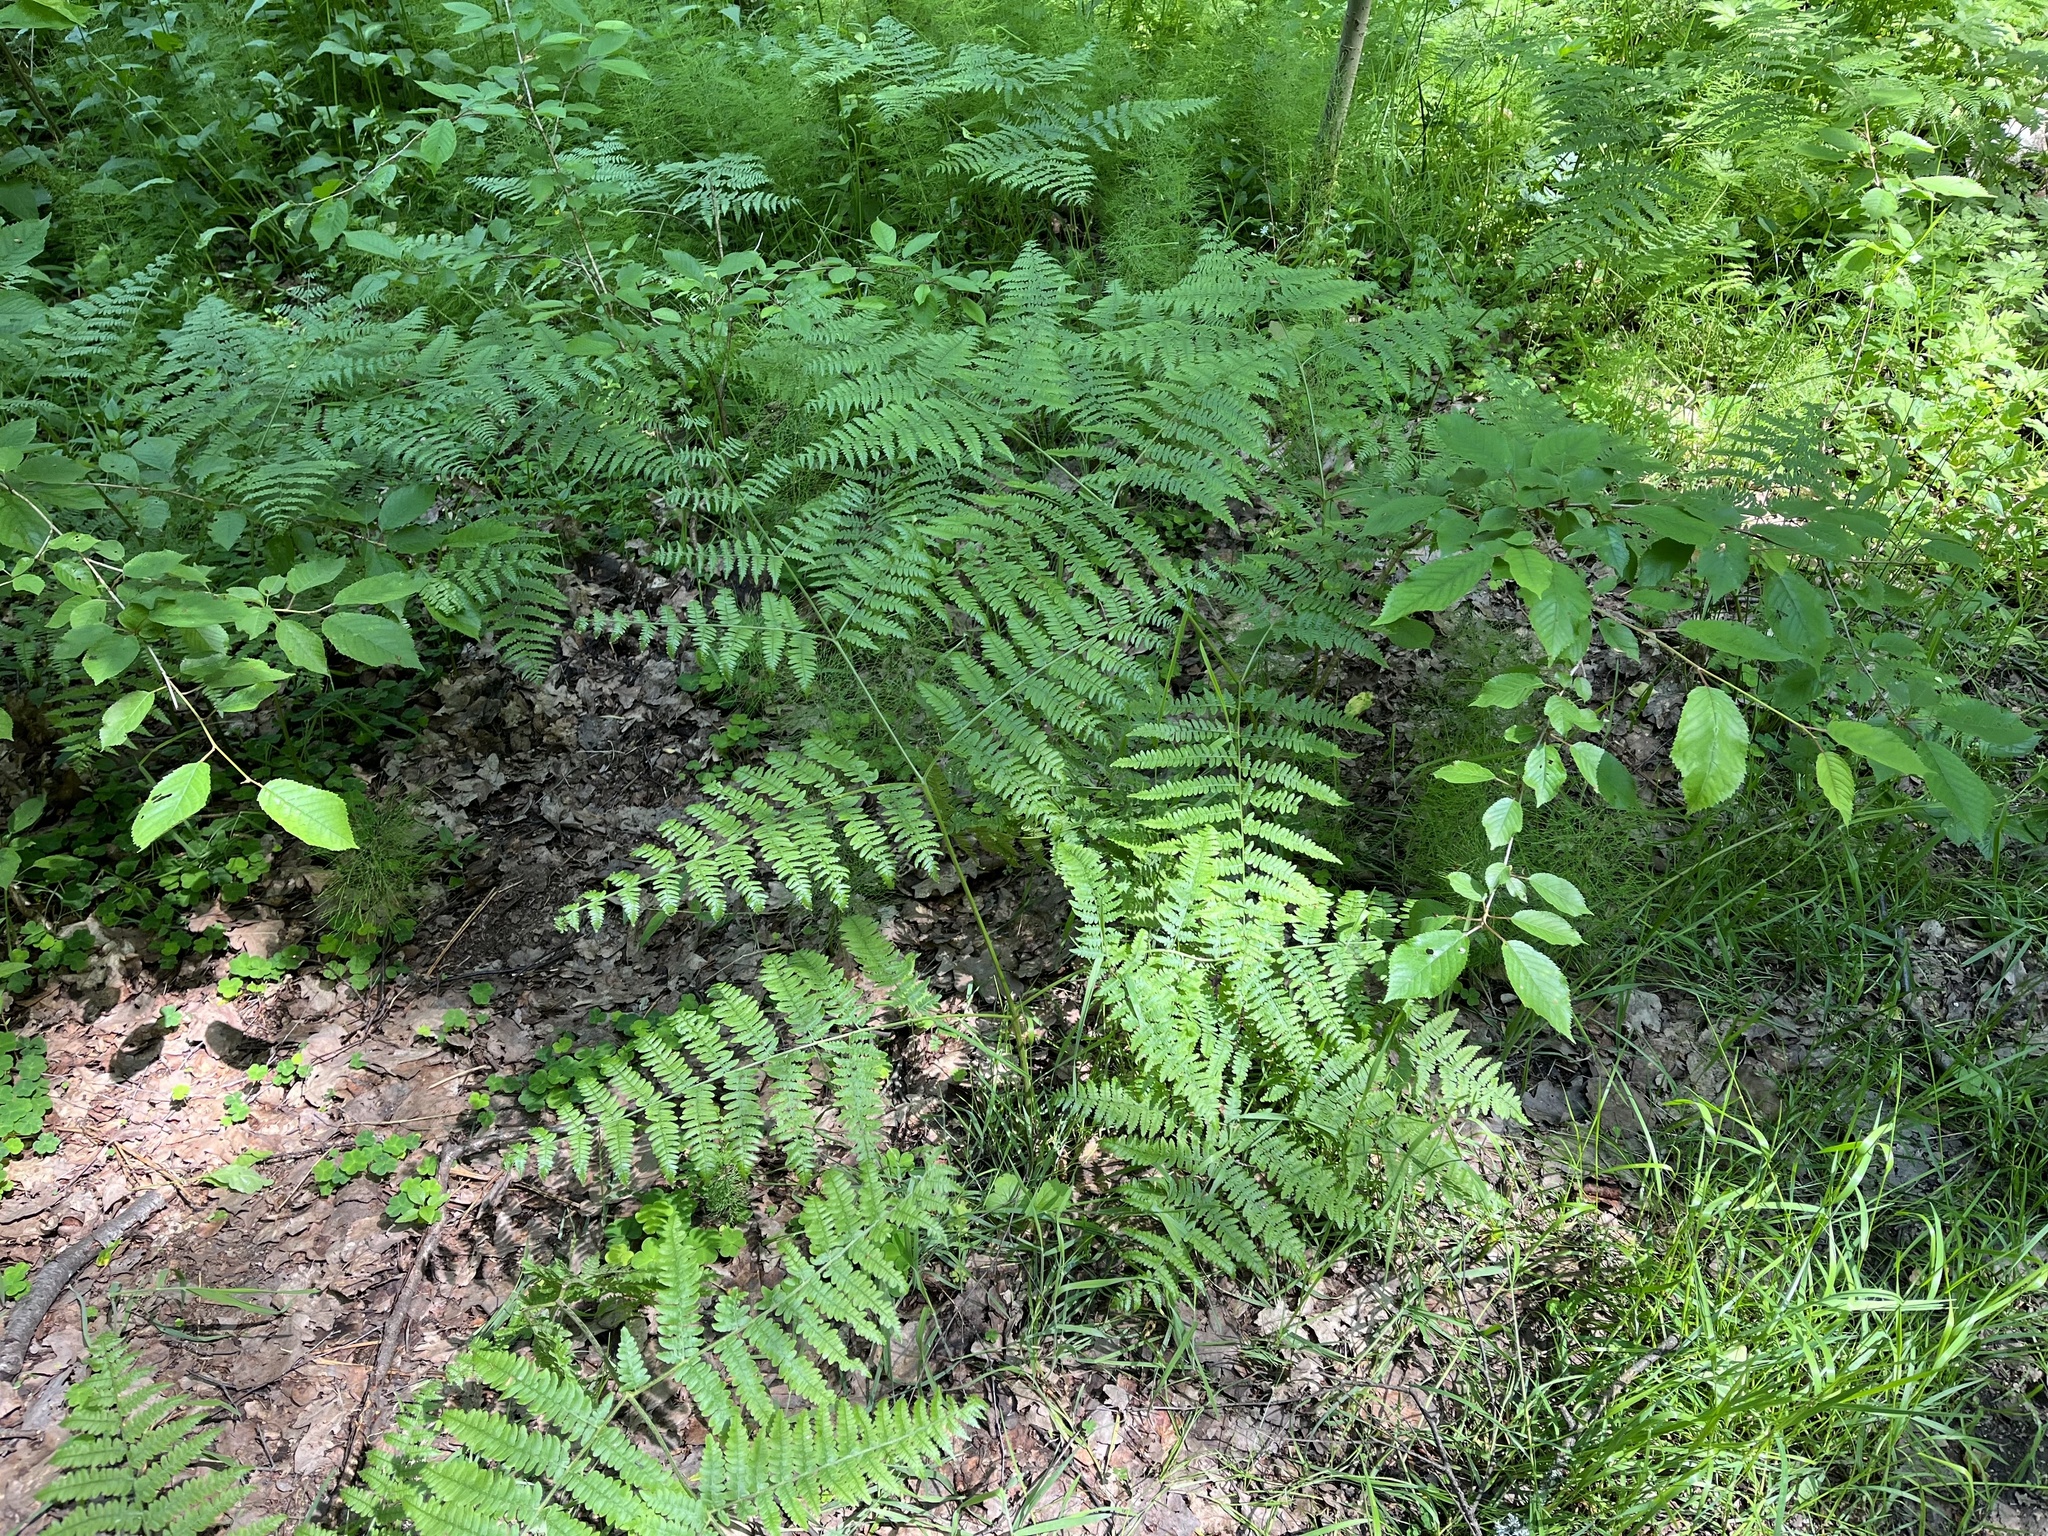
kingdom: Plantae
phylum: Tracheophyta
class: Polypodiopsida
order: Polypodiales
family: Dennstaedtiaceae
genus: Pteridium
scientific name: Pteridium aquilinum
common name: Bracken
